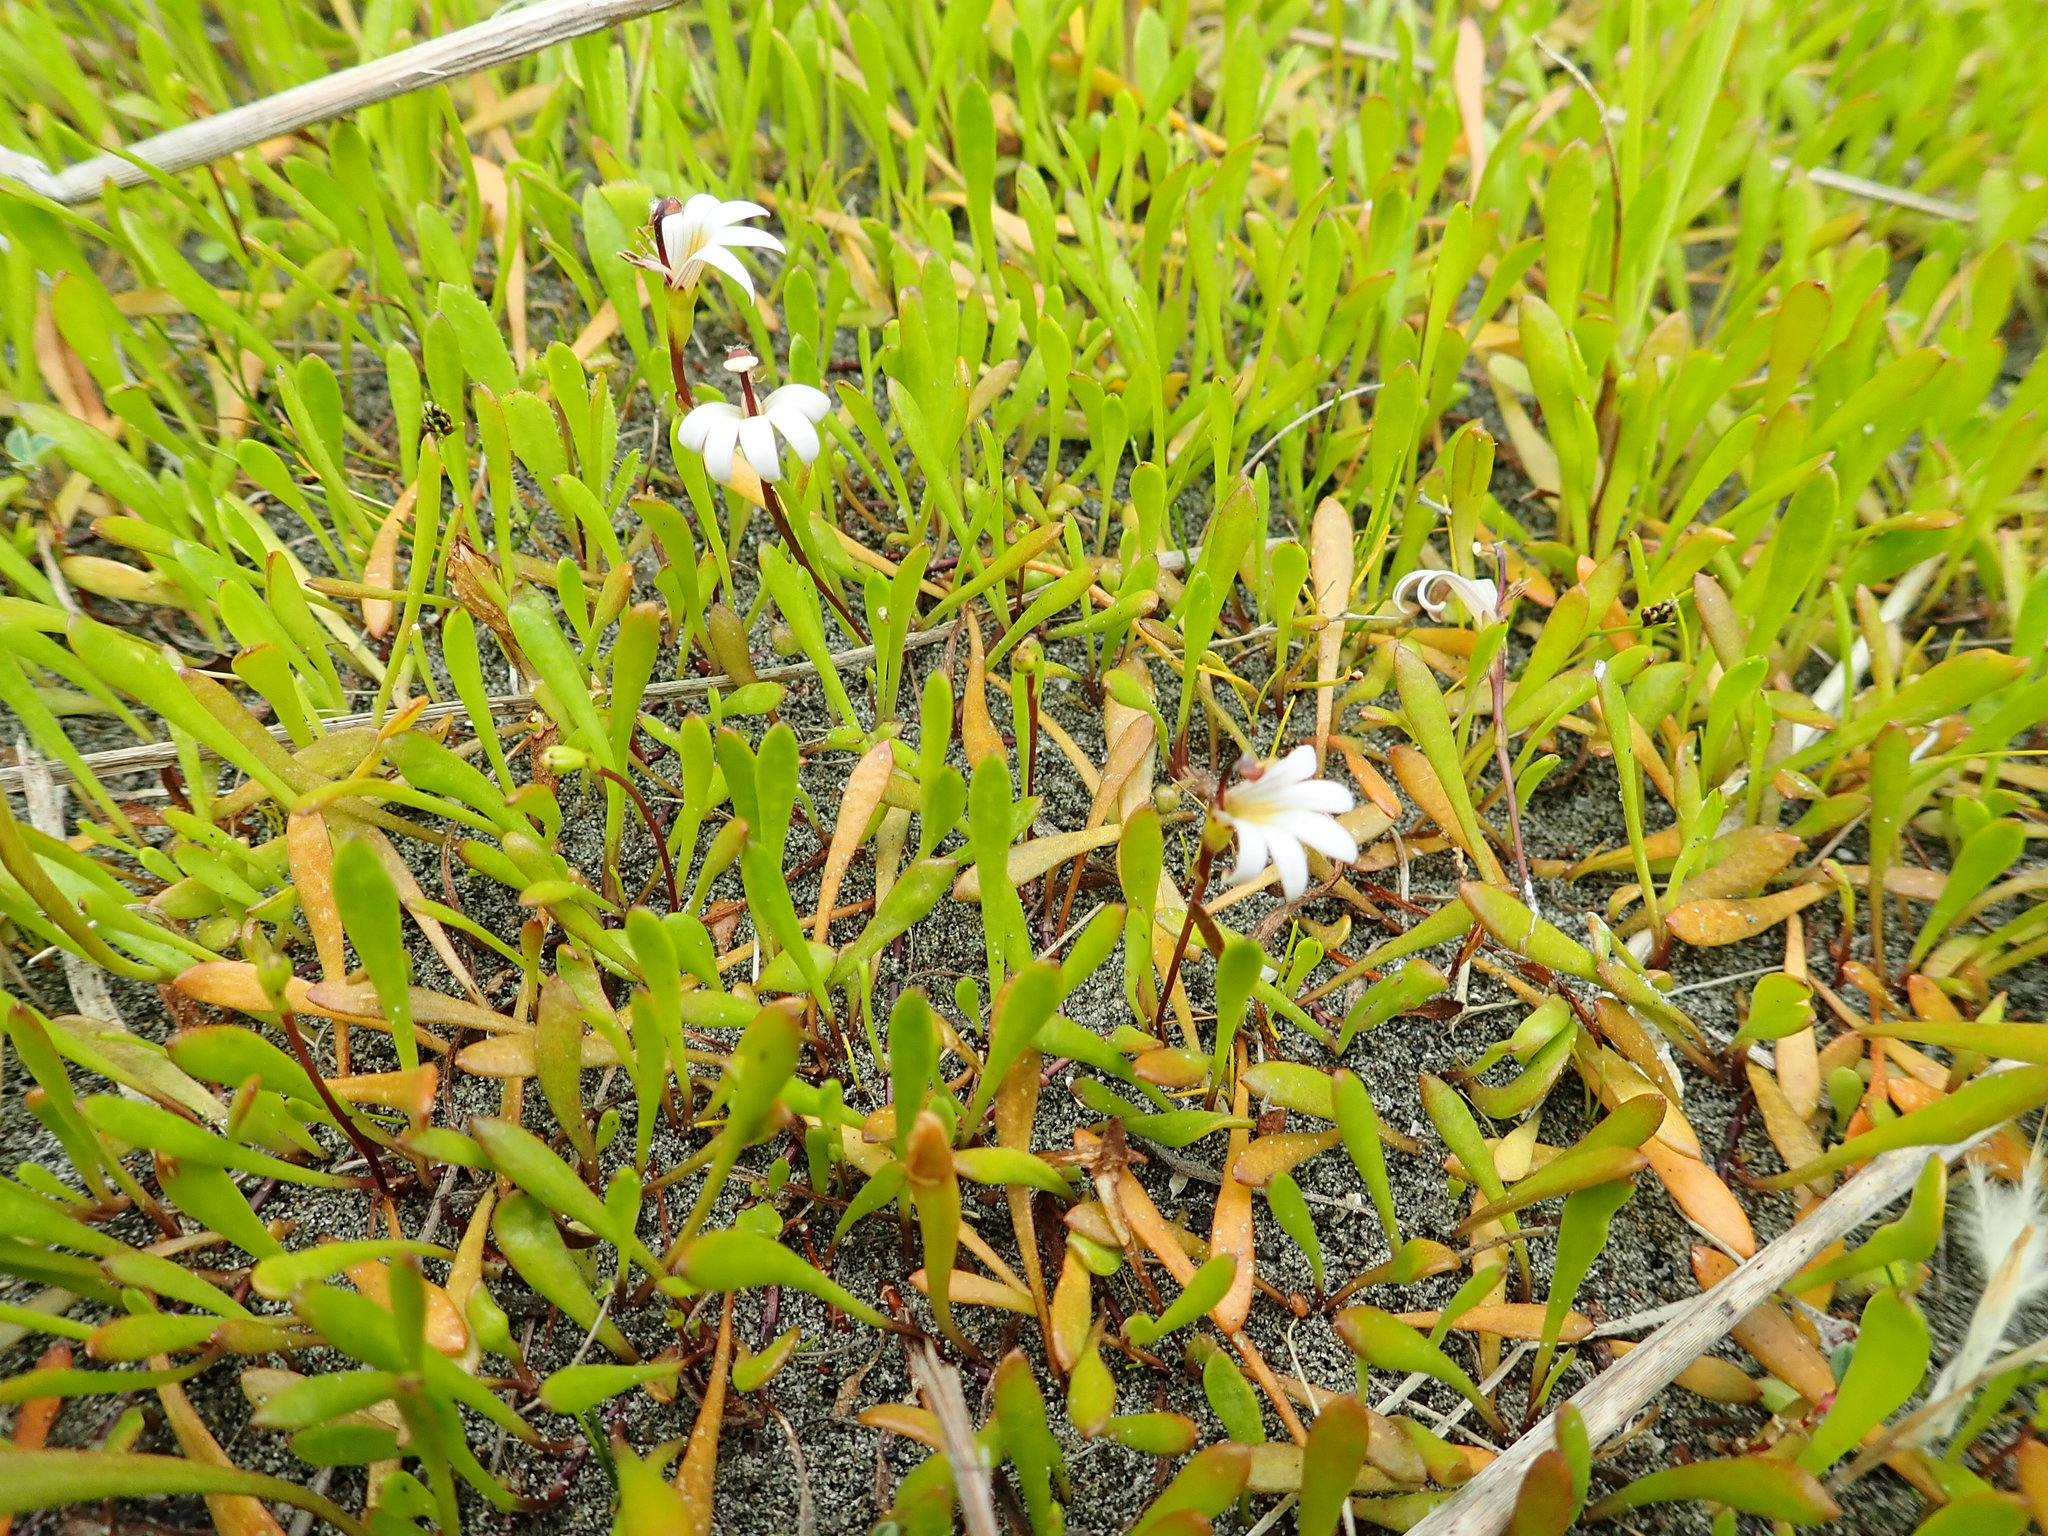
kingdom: Plantae
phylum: Tracheophyta
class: Magnoliopsida
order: Asterales
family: Goodeniaceae
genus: Goodenia
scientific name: Goodenia radicans
